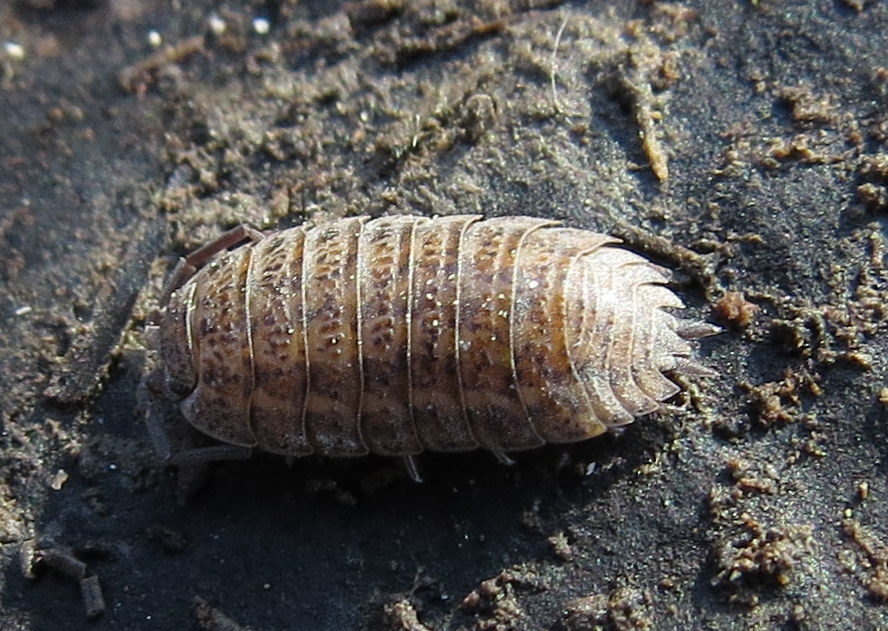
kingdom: Animalia
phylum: Arthropoda
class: Malacostraca
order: Isopoda
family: Trachelipodidae
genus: Trachelipus
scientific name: Trachelipus rathkii
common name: Isopod
